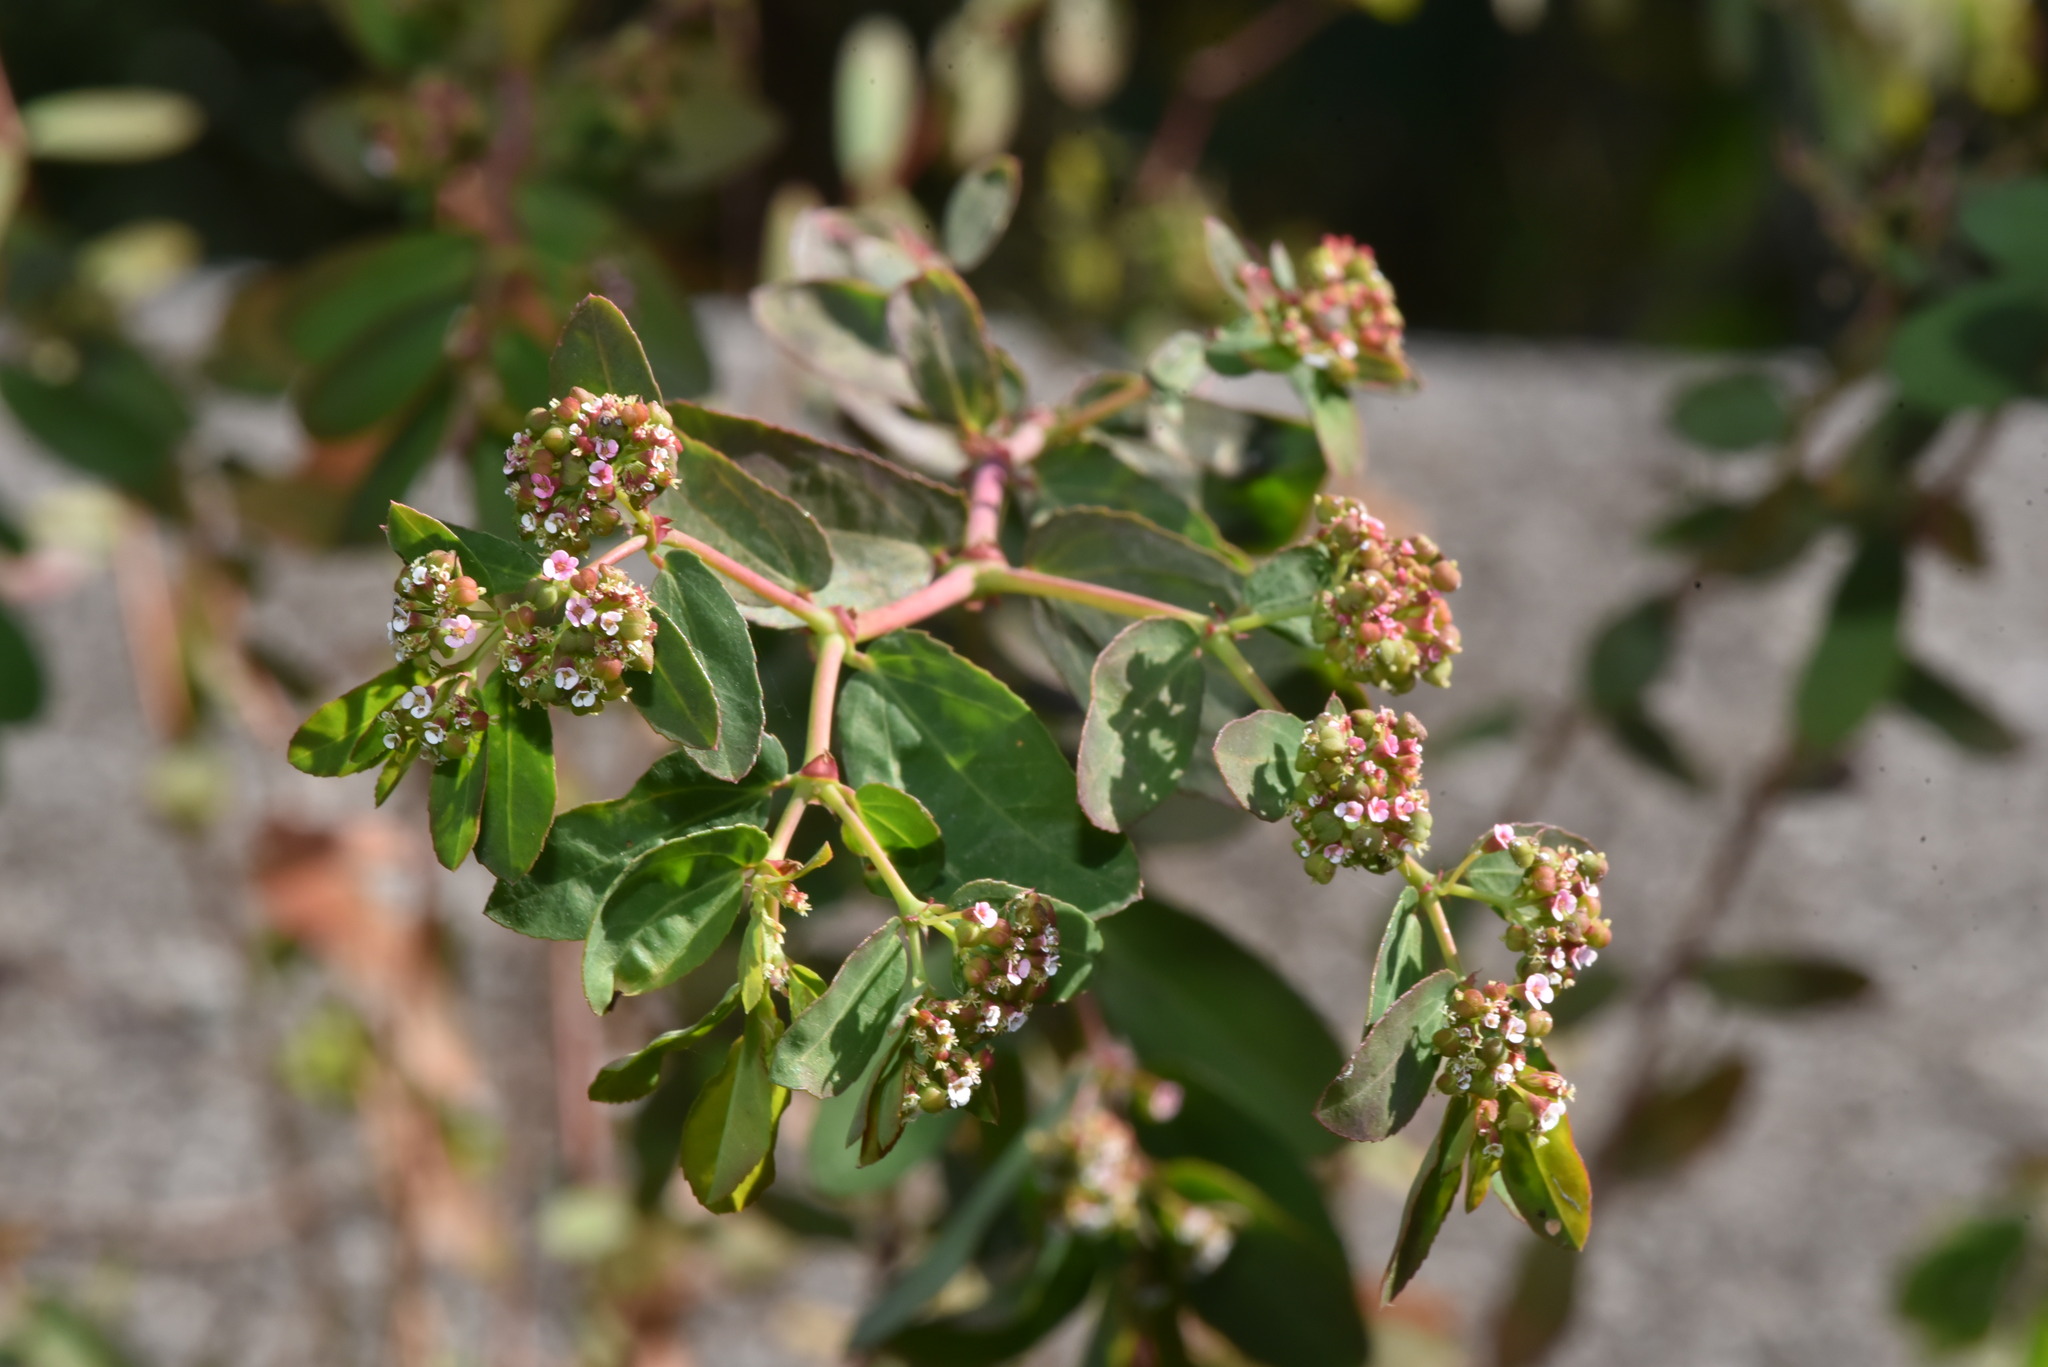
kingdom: Plantae
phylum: Tracheophyta
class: Magnoliopsida
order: Malpighiales
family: Euphorbiaceae
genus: Euphorbia
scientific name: Euphorbia hypericifolia
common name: Graceful sandmat
